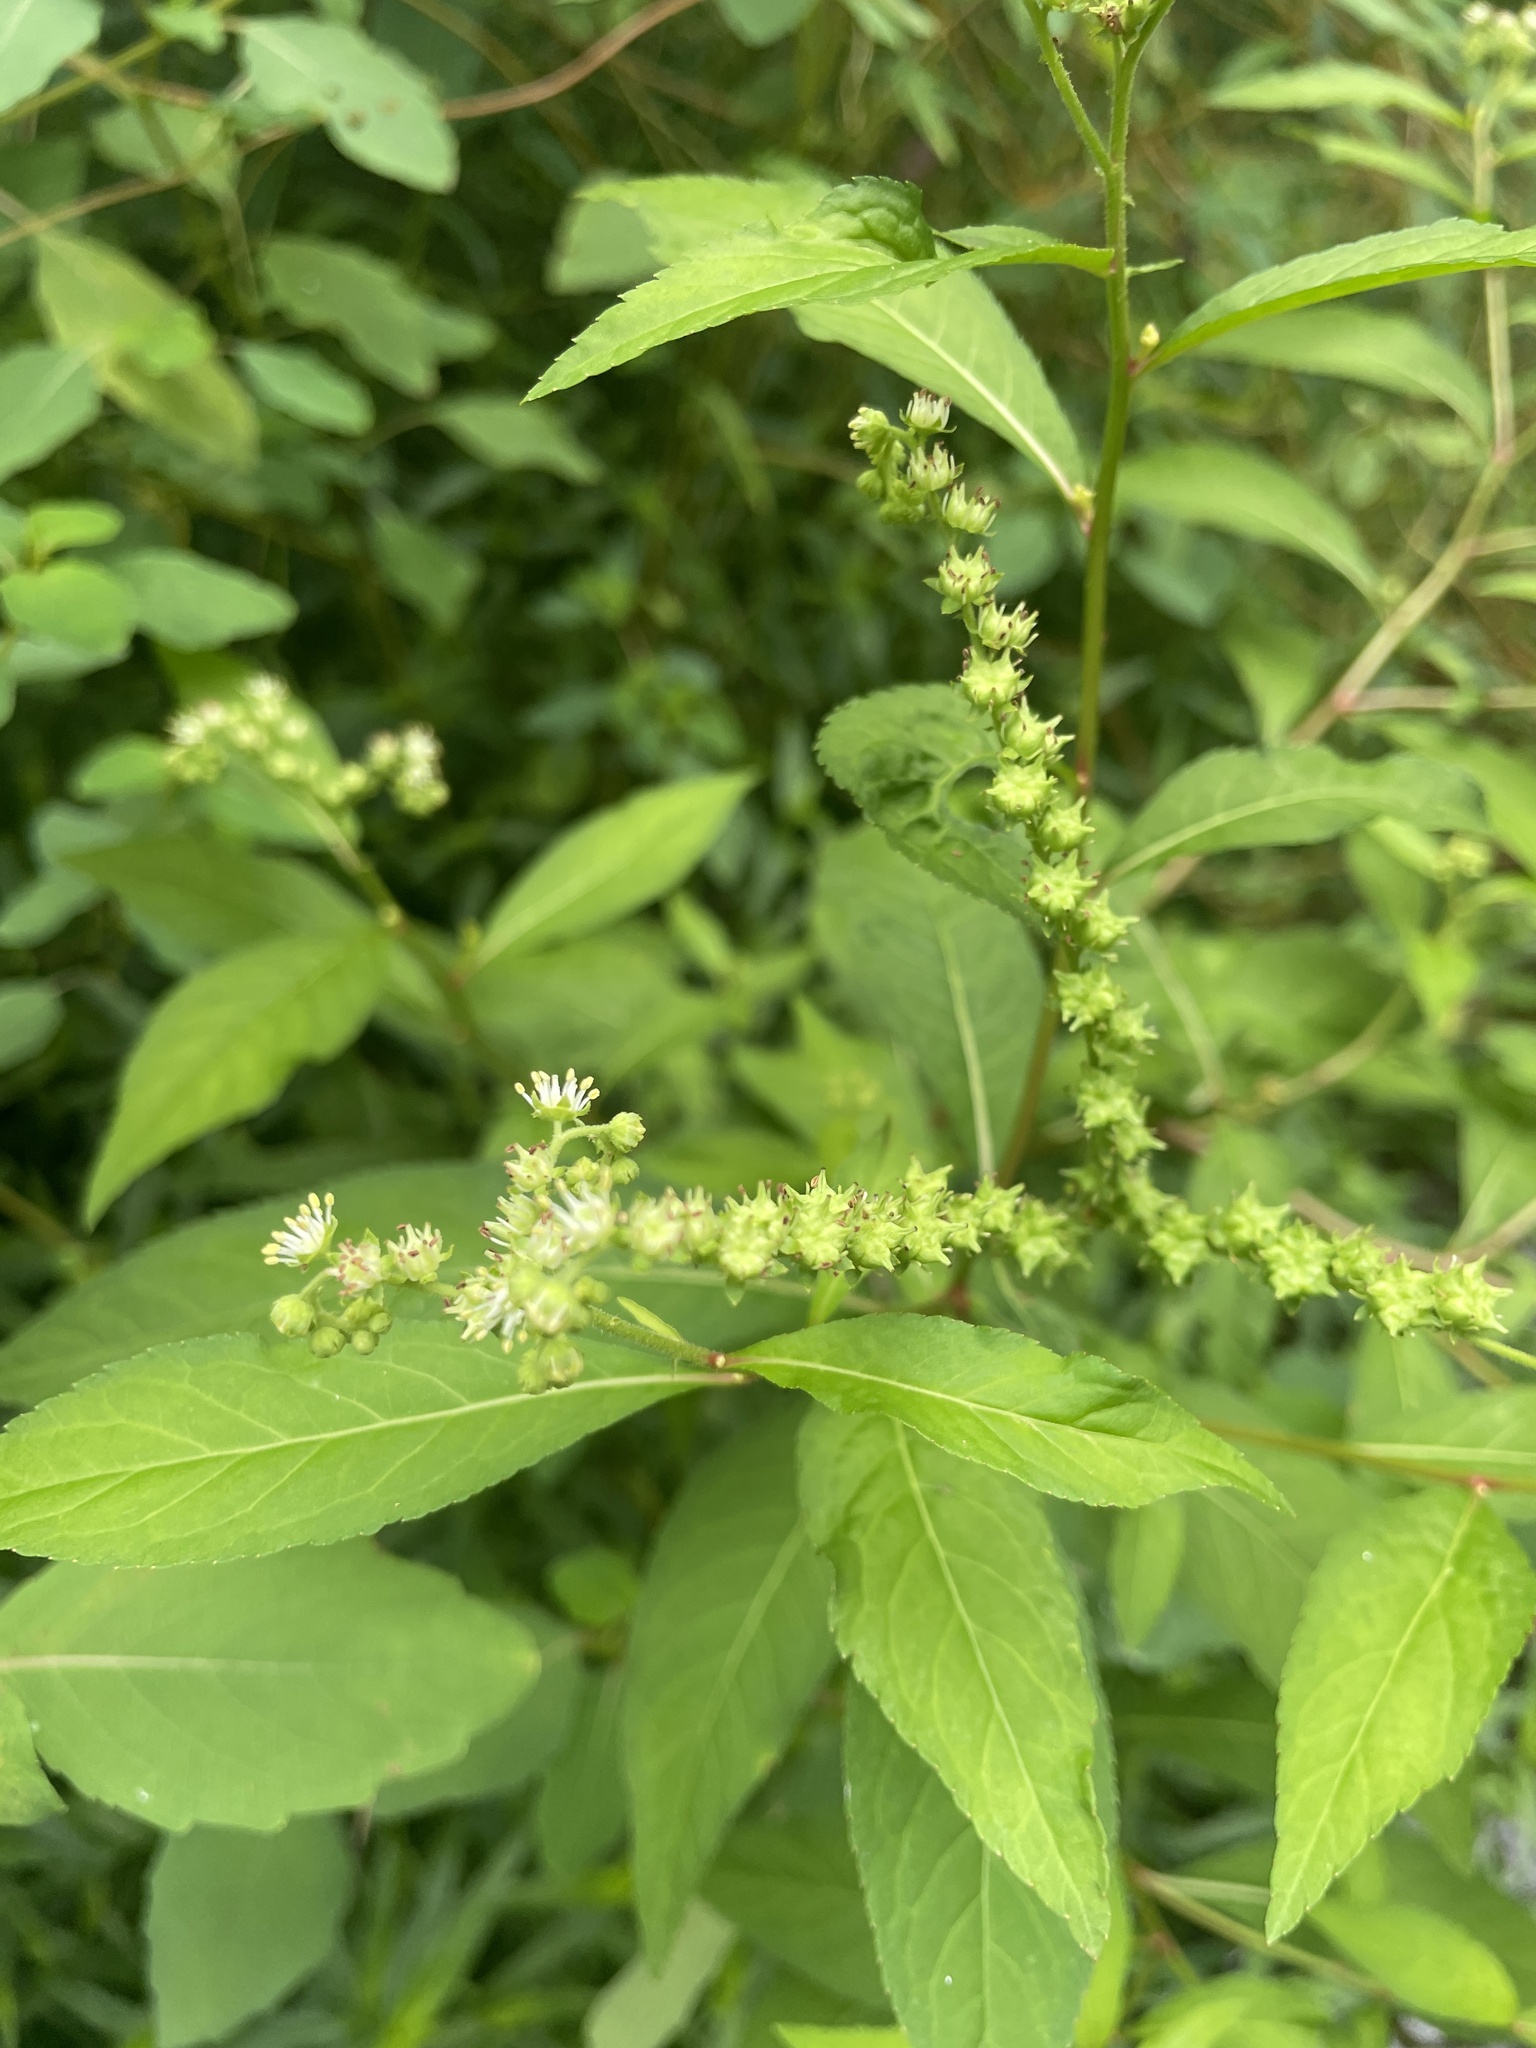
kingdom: Plantae
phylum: Tracheophyta
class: Magnoliopsida
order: Saxifragales
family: Penthoraceae
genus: Penthorum
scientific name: Penthorum sedoides
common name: Ditch stonecrop
